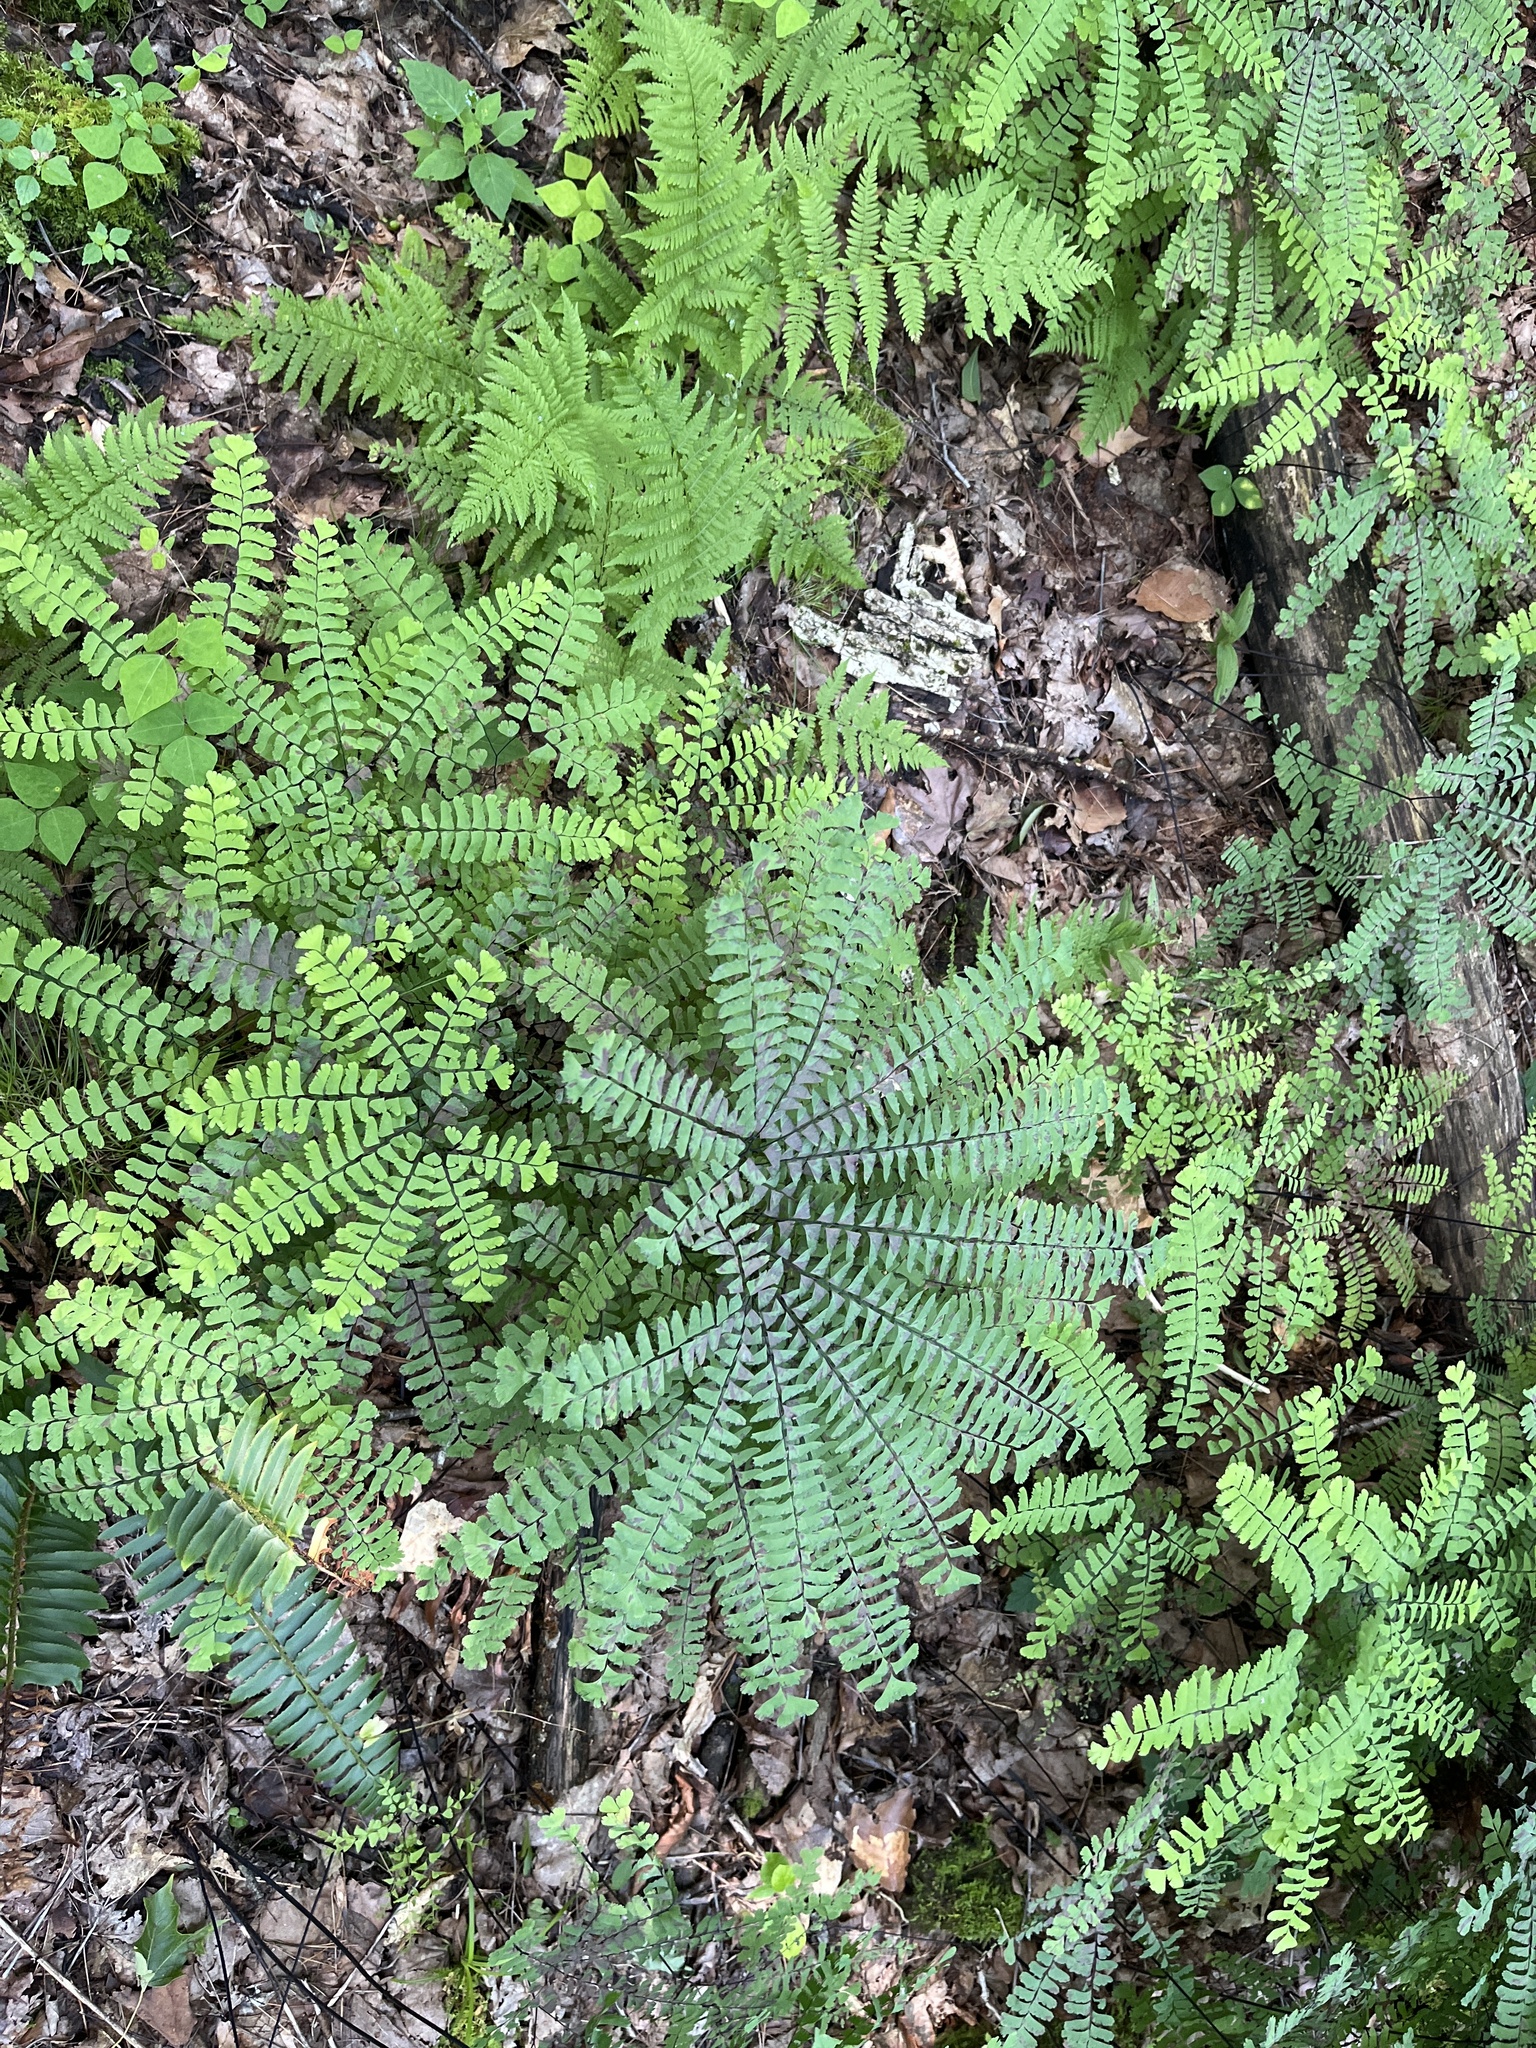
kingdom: Plantae
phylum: Tracheophyta
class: Polypodiopsida
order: Polypodiales
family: Pteridaceae
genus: Adiantum
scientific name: Adiantum pedatum
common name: Five-finger fern
